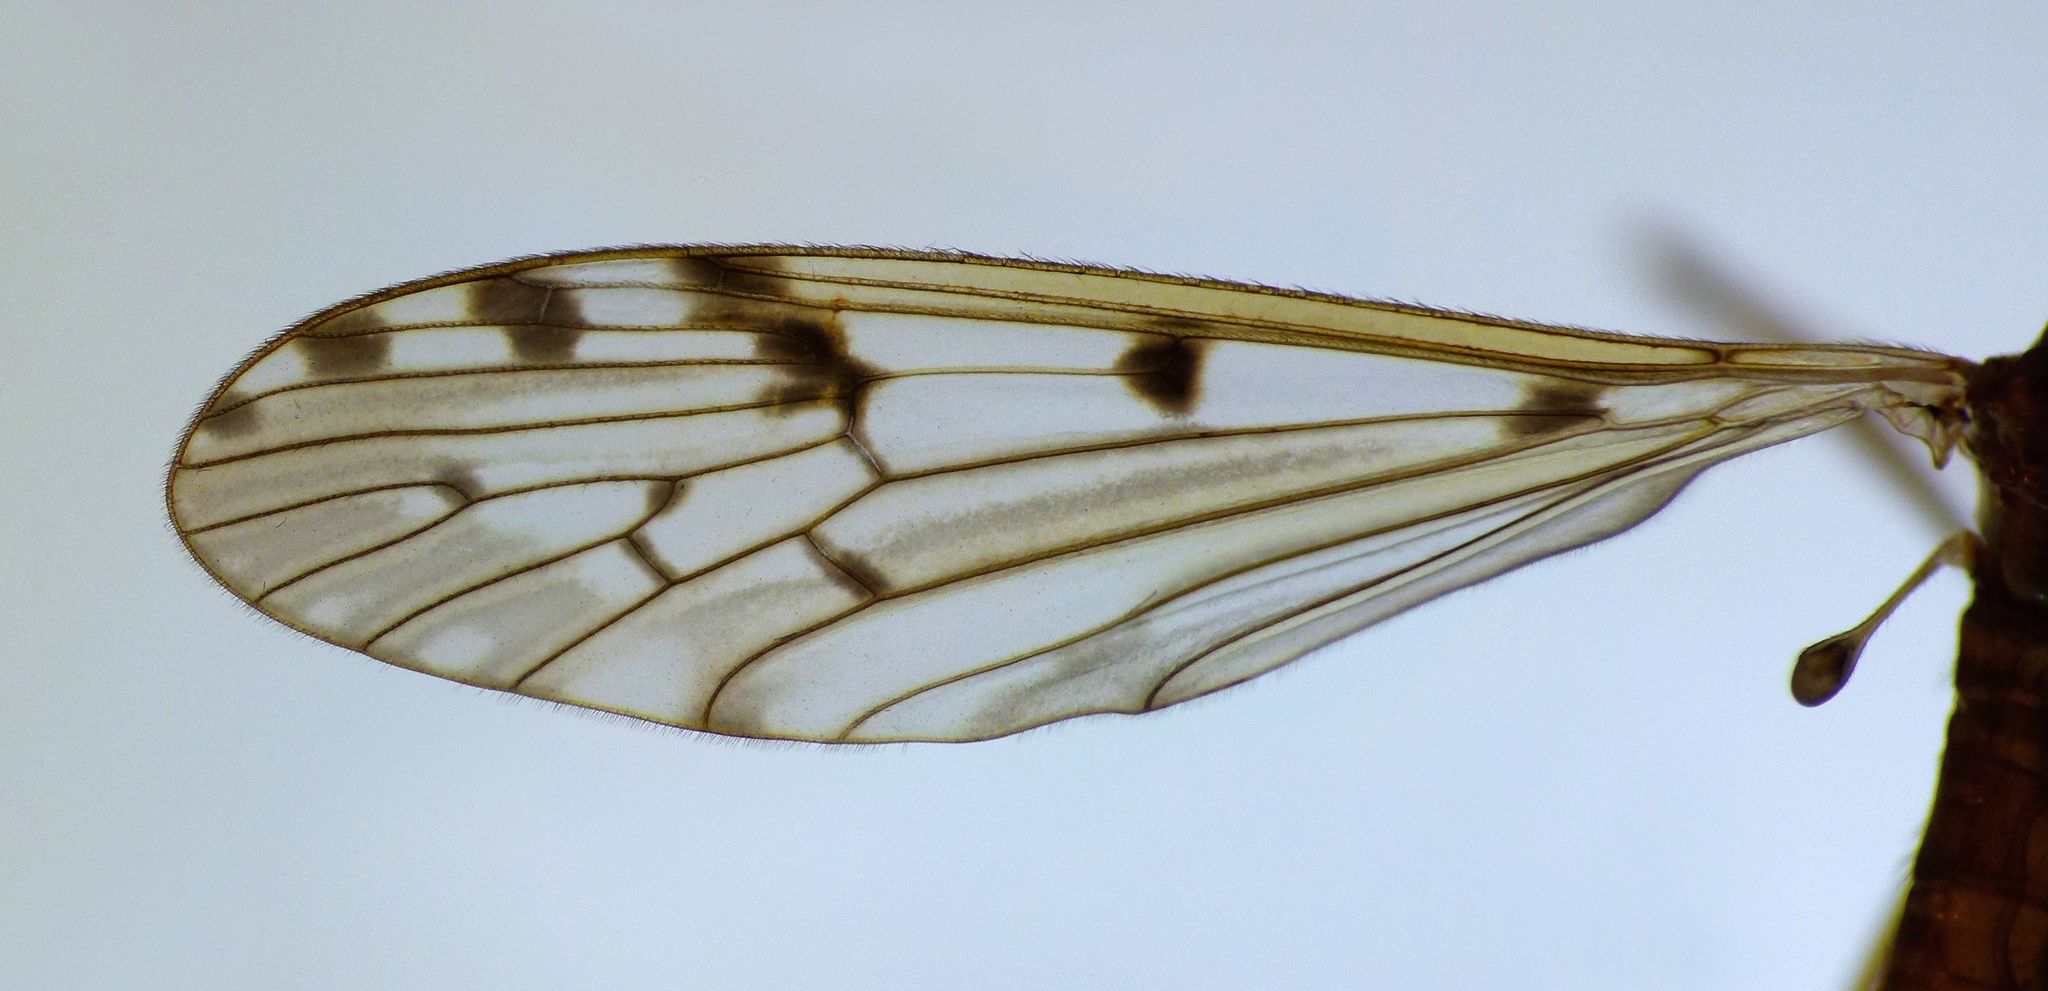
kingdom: Animalia
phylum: Arthropoda
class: Insecta
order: Diptera
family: Limoniidae
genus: Austrolimnophila
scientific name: Austrolimnophila atripes
